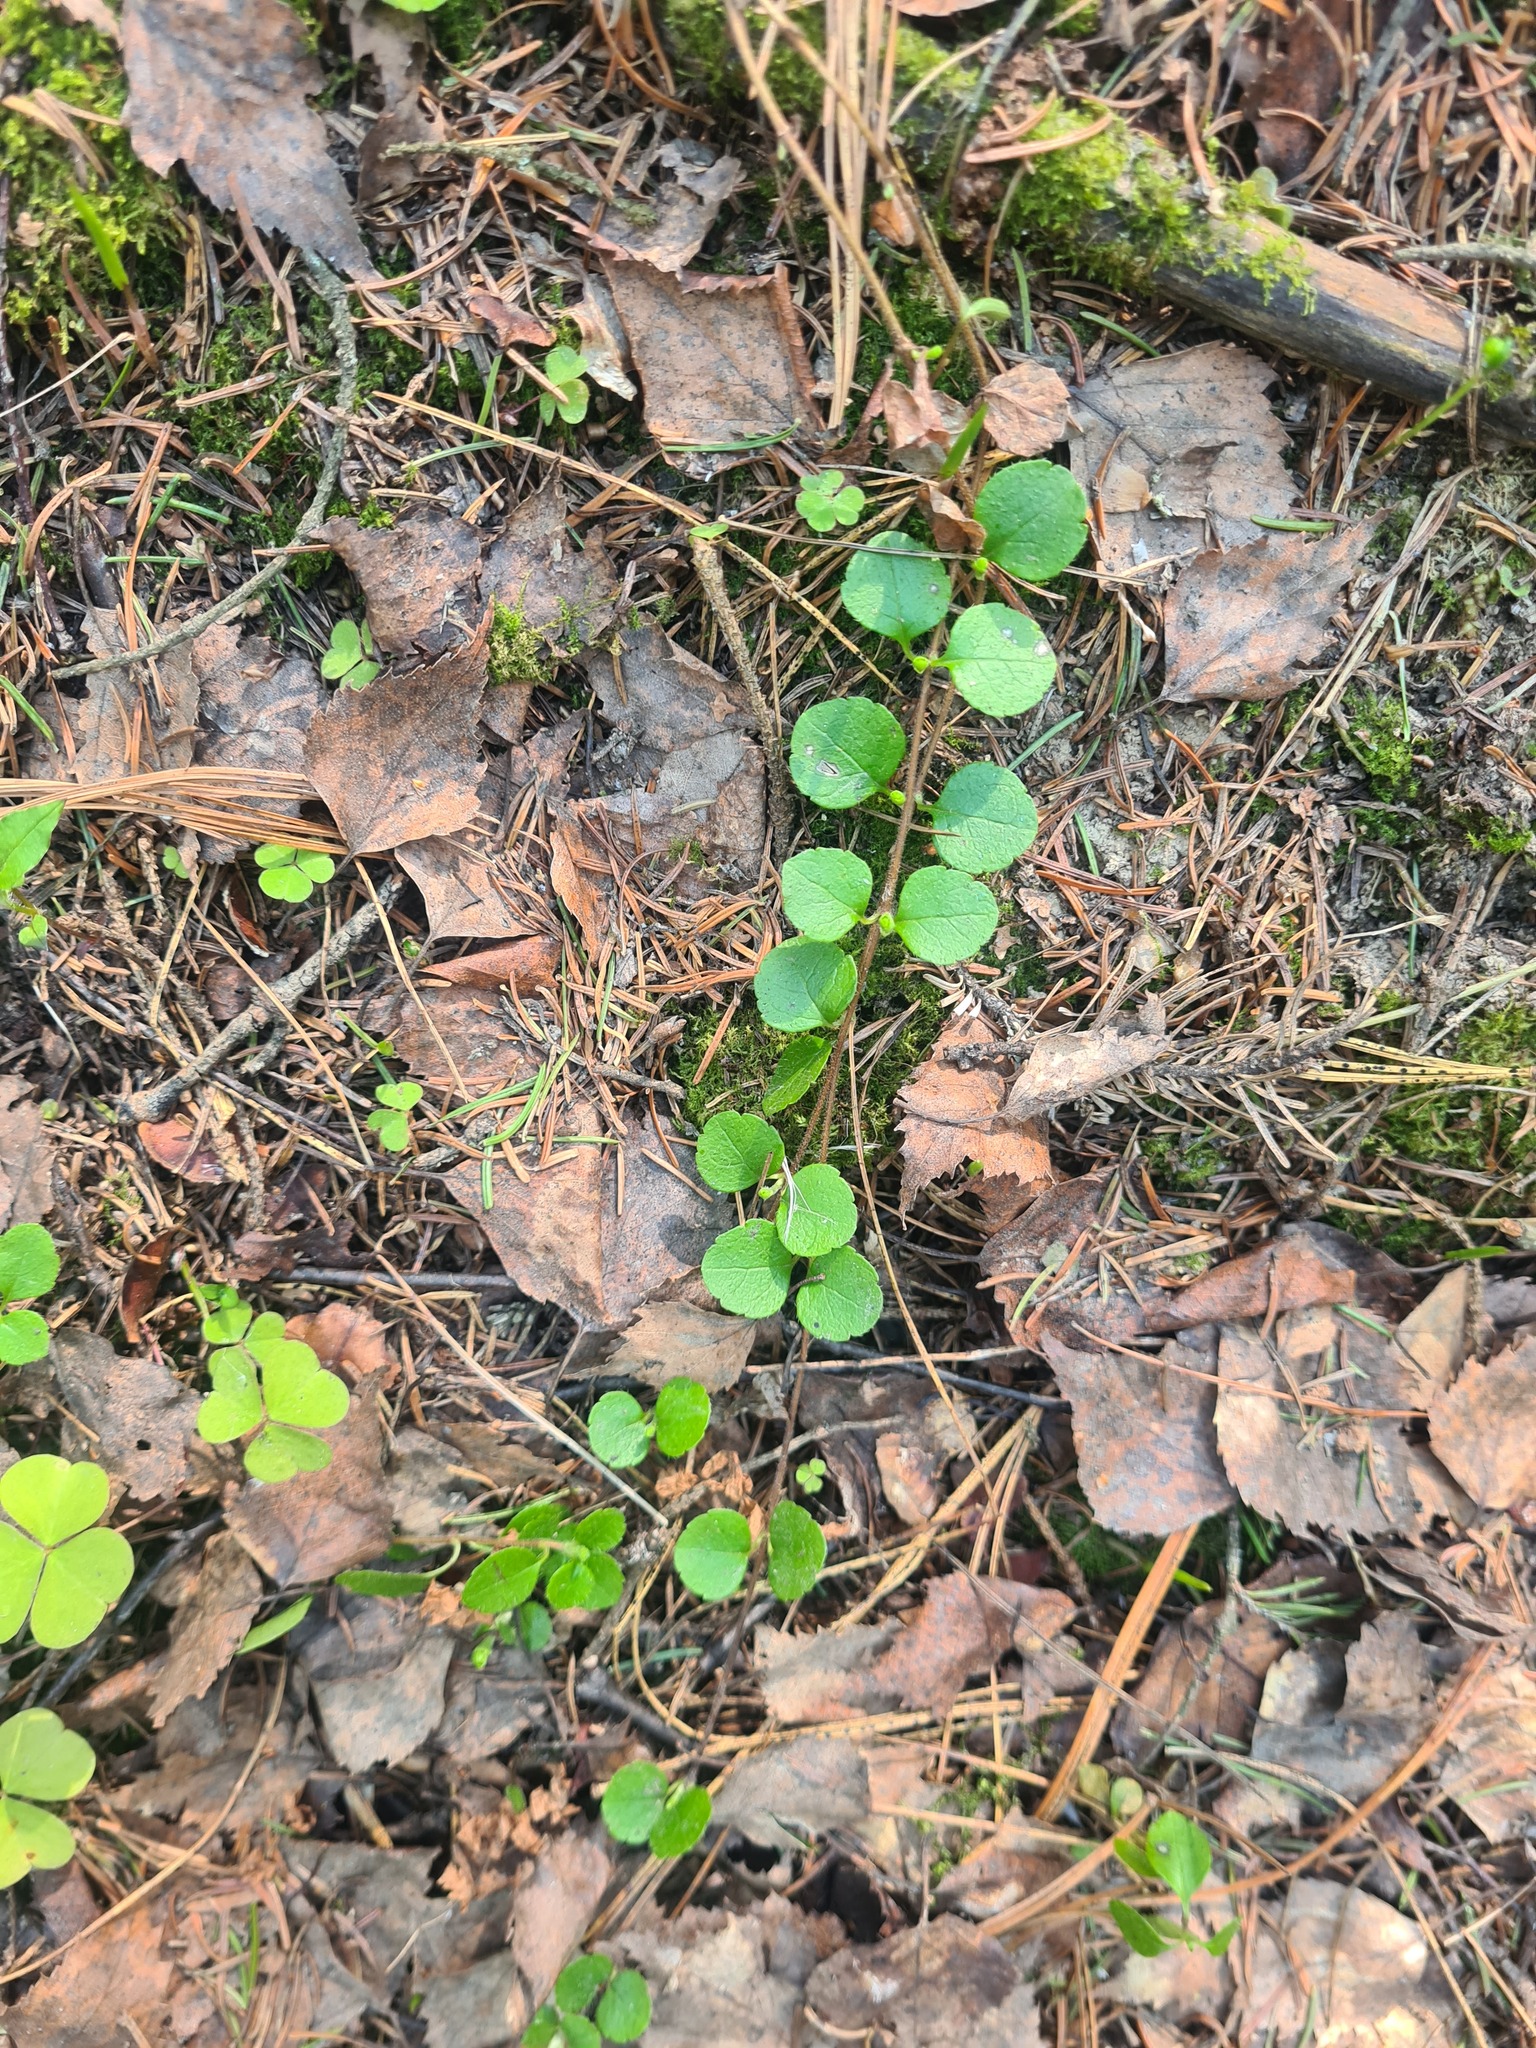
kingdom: Plantae
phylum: Tracheophyta
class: Magnoliopsida
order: Dipsacales
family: Caprifoliaceae
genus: Linnaea
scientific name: Linnaea borealis
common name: Twinflower
